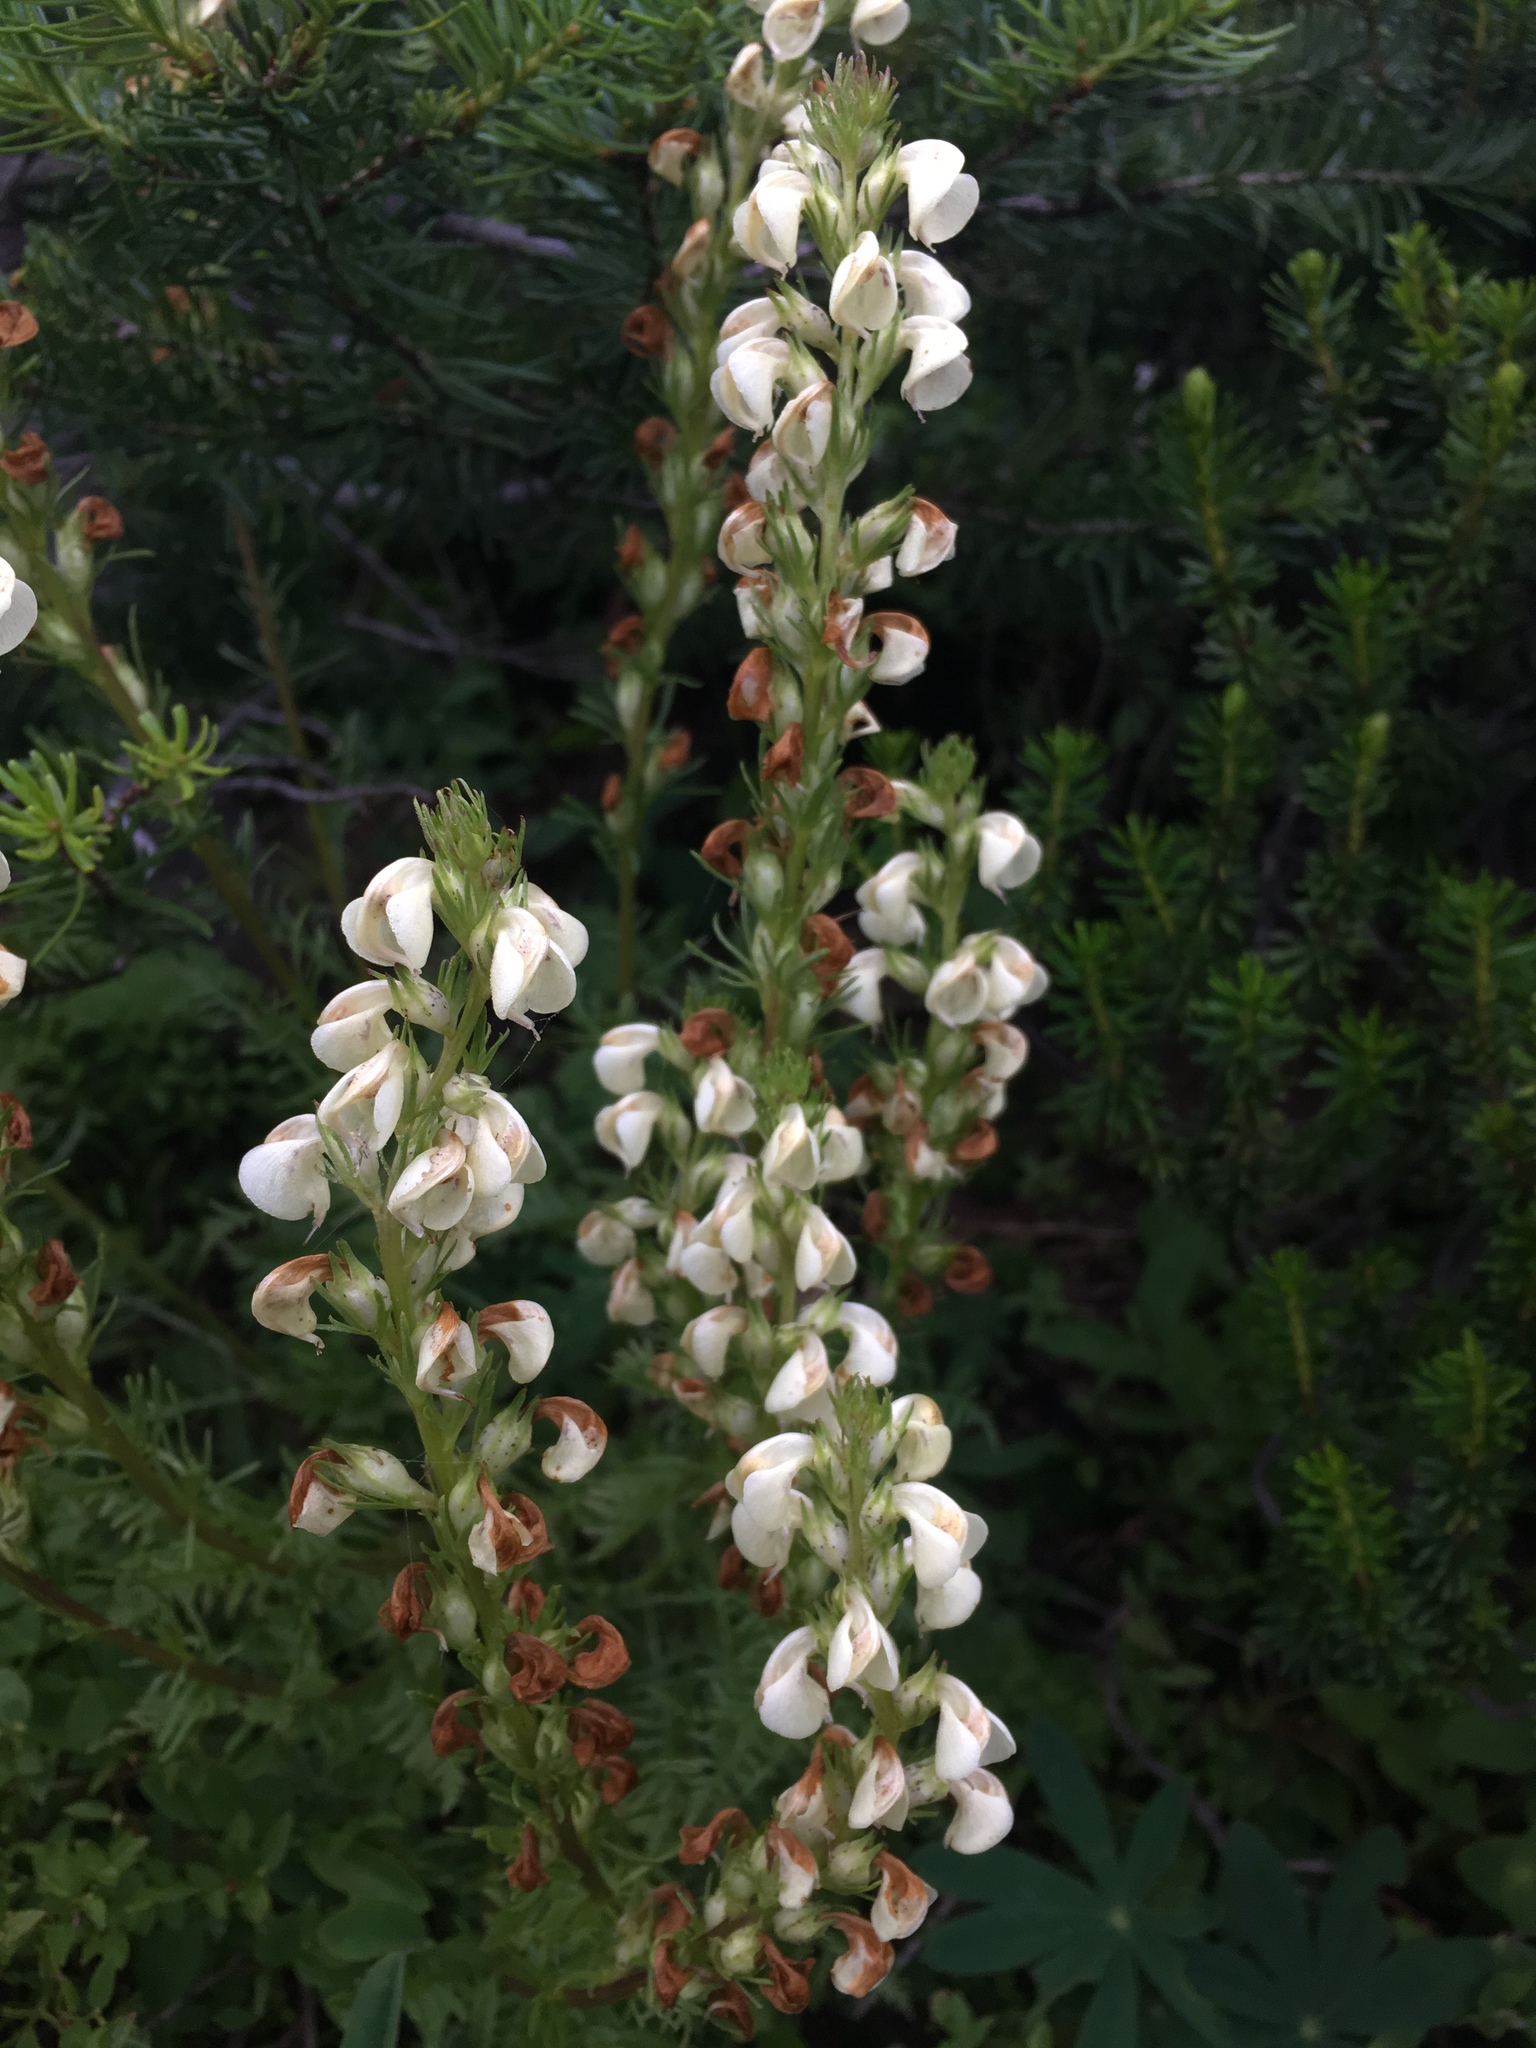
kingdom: Plantae
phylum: Tracheophyta
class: Magnoliopsida
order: Lamiales
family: Orobanchaceae
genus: Pedicularis
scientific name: Pedicularis contorta
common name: Coiled lousewort
